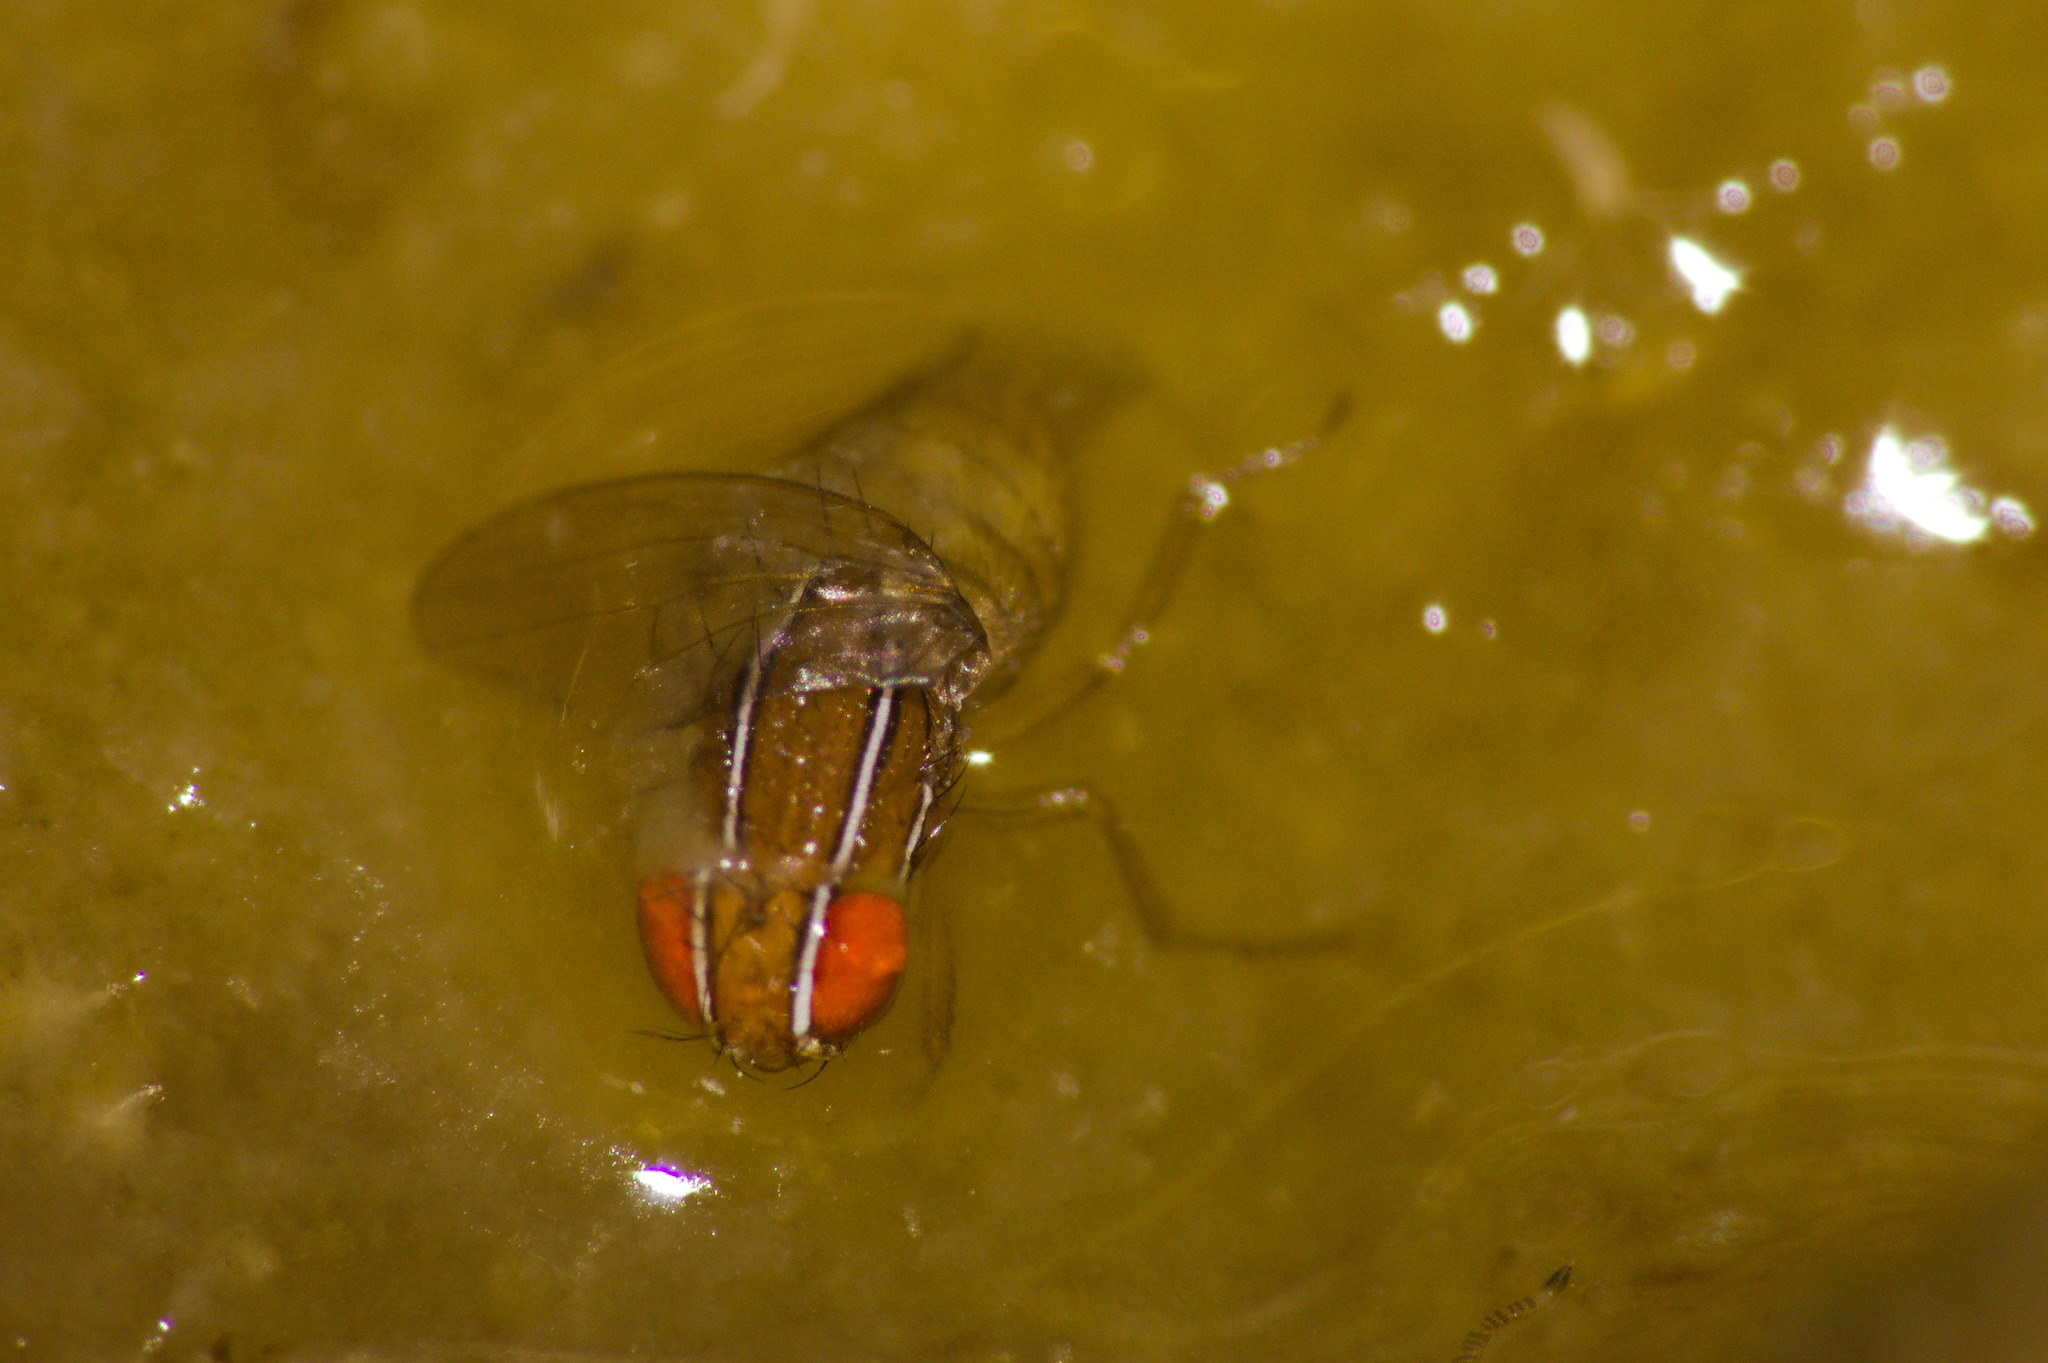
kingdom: Animalia
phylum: Arthropoda
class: Insecta
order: Diptera
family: Drosophilidae
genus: Zaprionus
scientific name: Zaprionus indianus
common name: African fig fly
